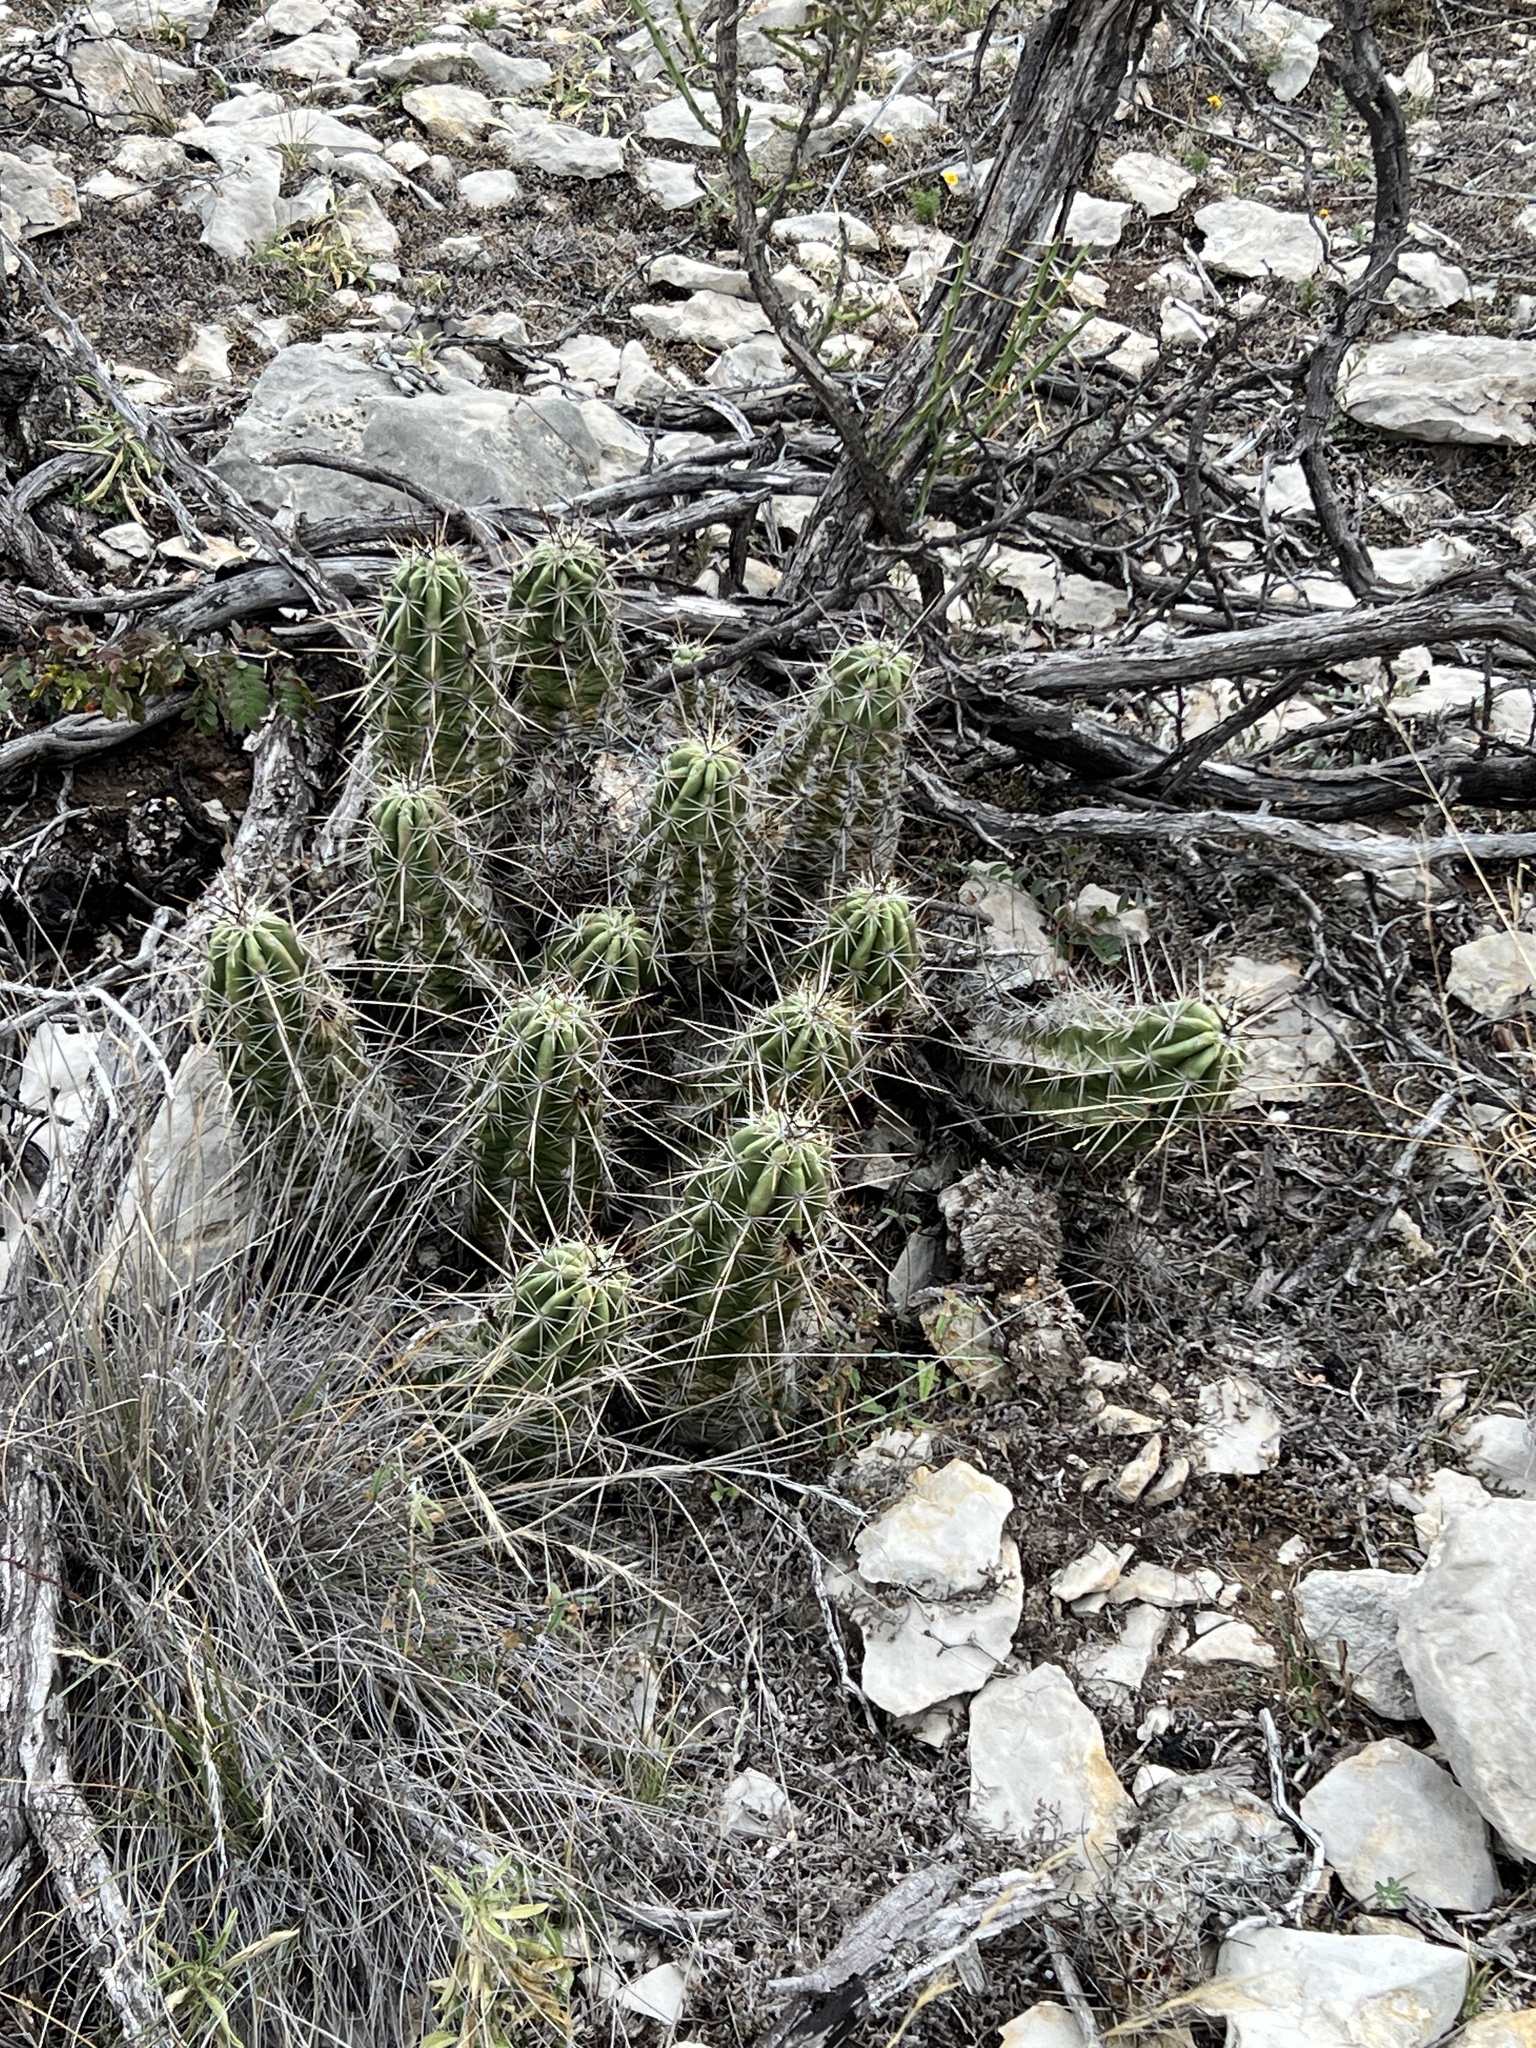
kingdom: Plantae
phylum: Tracheophyta
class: Magnoliopsida
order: Caryophyllales
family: Cactaceae
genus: Echinocereus
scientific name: Echinocereus enneacanthus
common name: Pitaya
